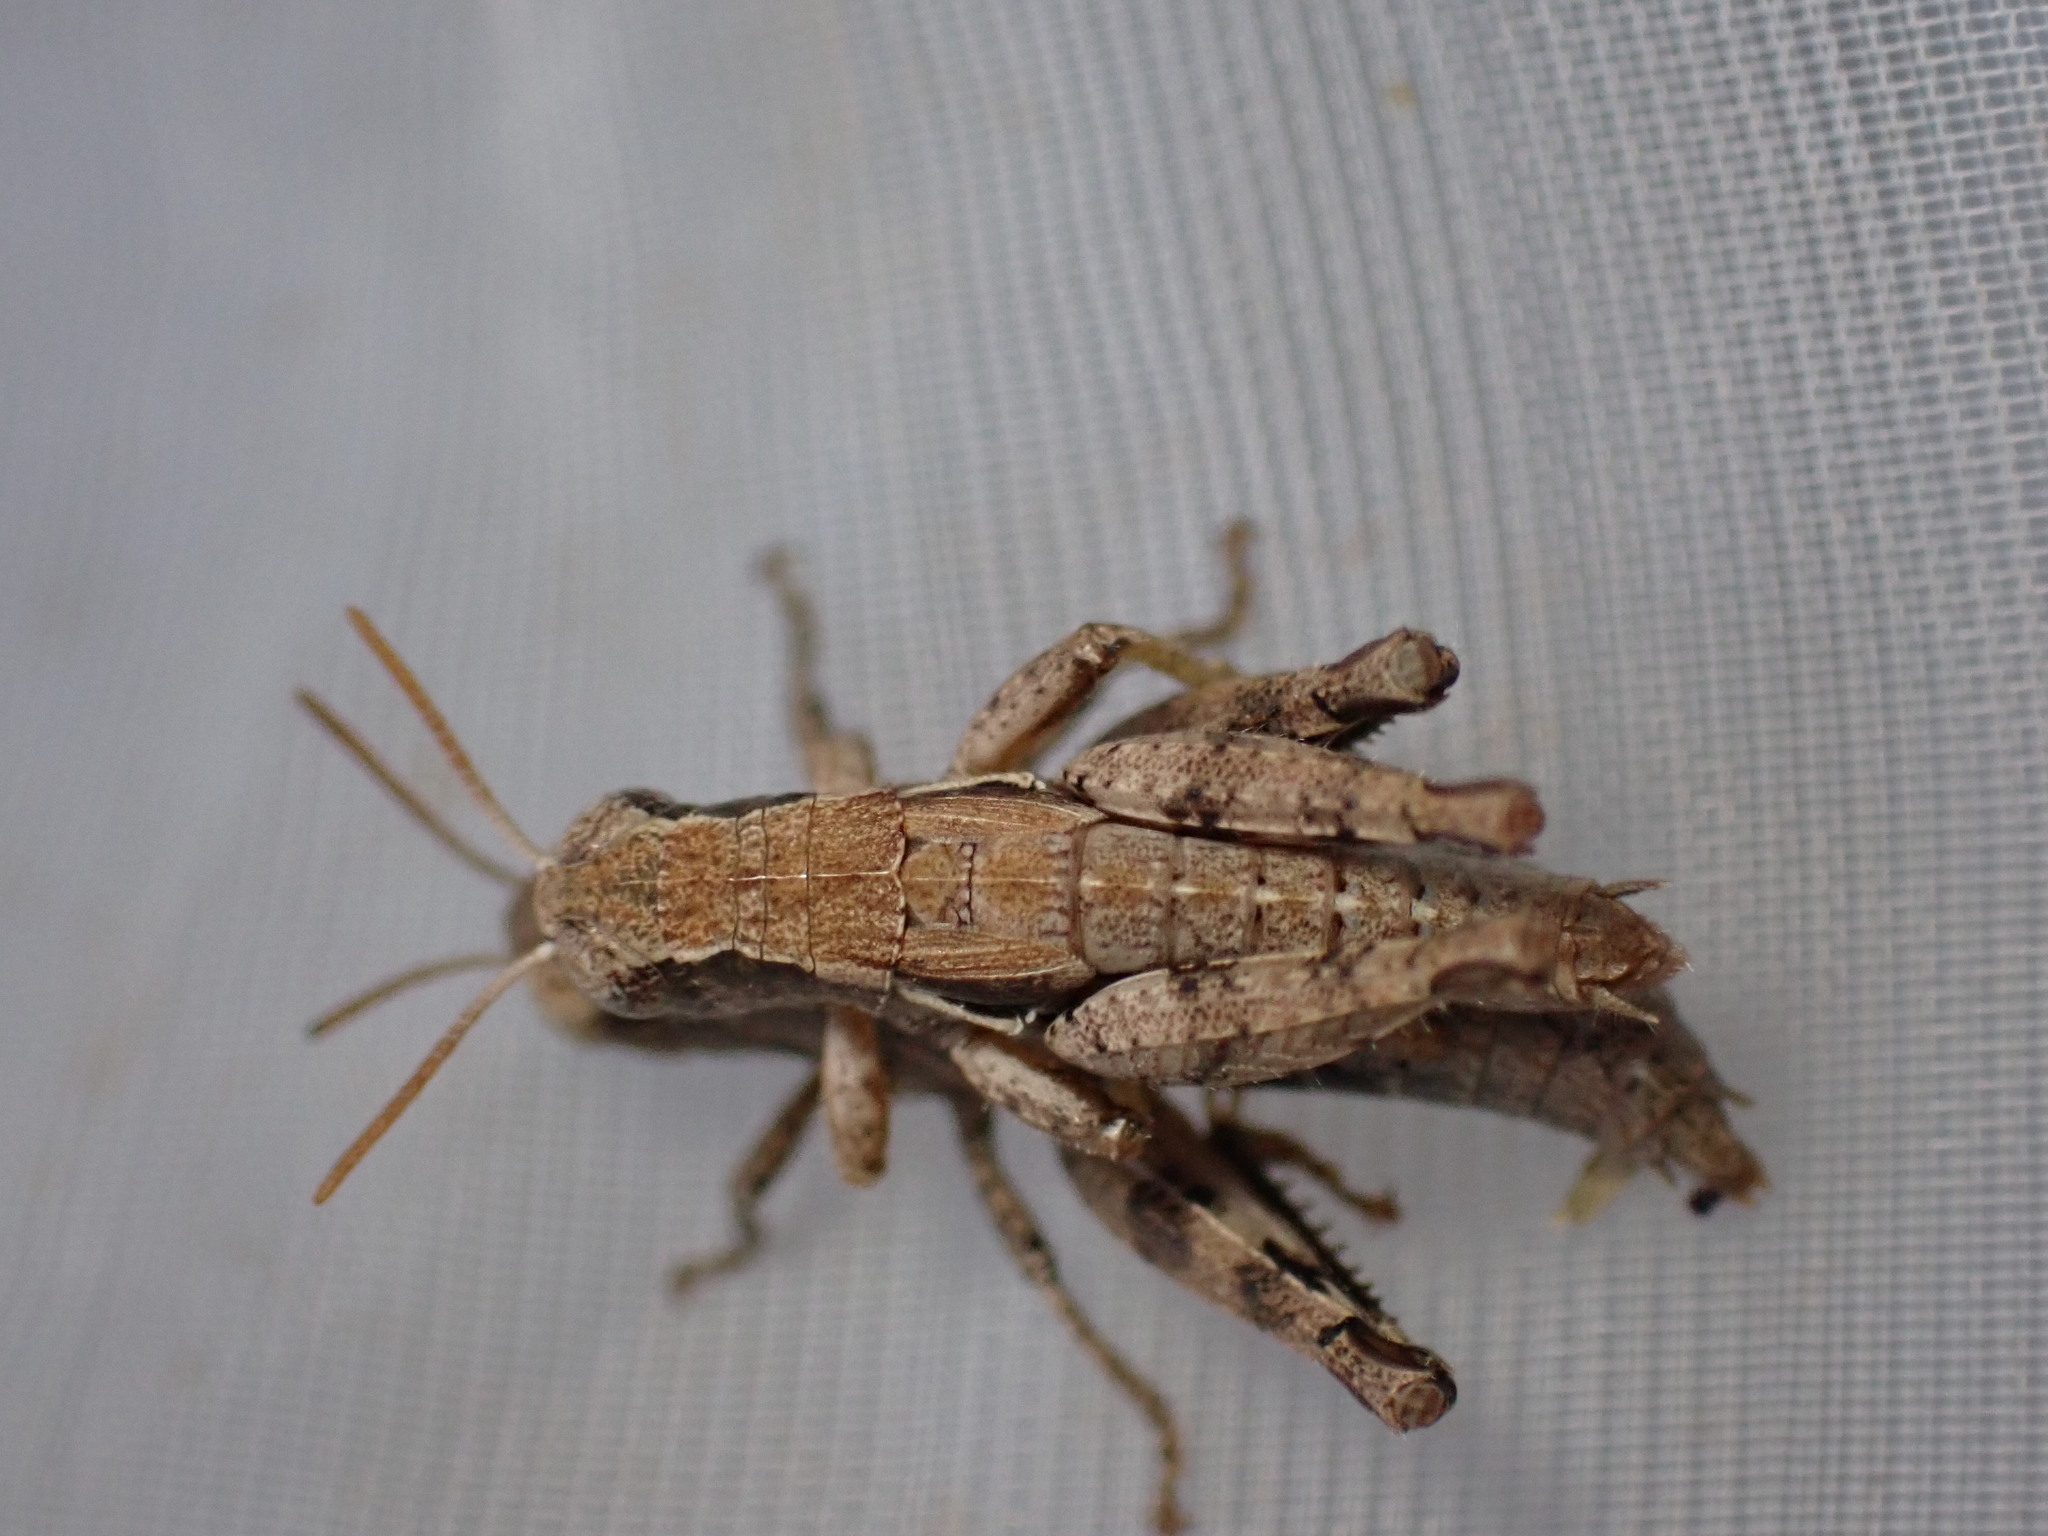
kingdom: Animalia
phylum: Arthropoda
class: Insecta
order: Orthoptera
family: Acrididae
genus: Pezotettix
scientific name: Pezotettix giornae
